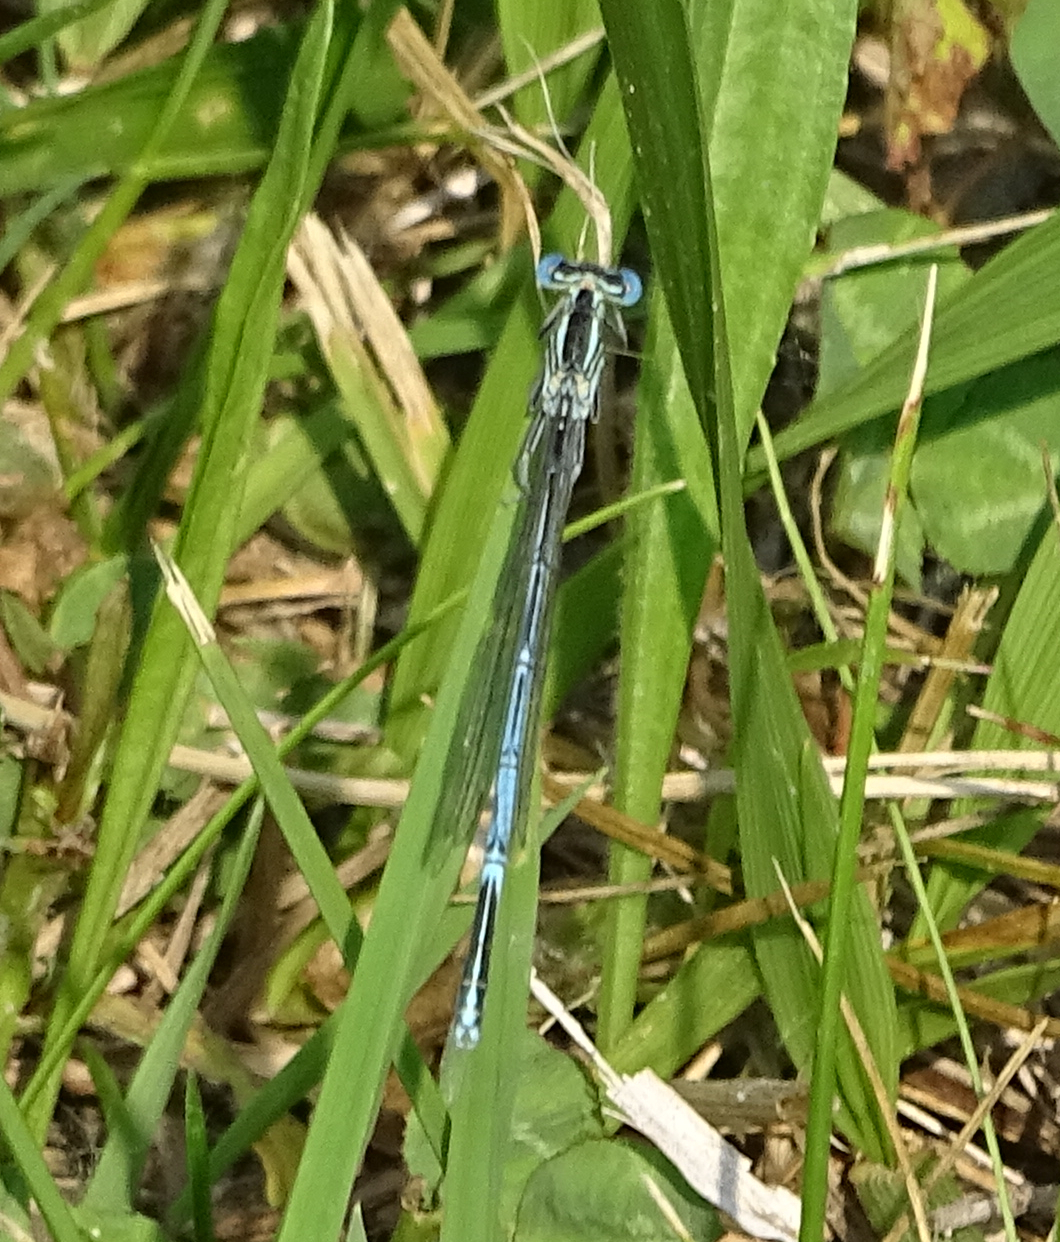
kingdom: Animalia
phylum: Arthropoda
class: Insecta
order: Odonata
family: Platycnemididae
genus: Platycnemis
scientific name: Platycnemis pennipes
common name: White-legged damselfly
